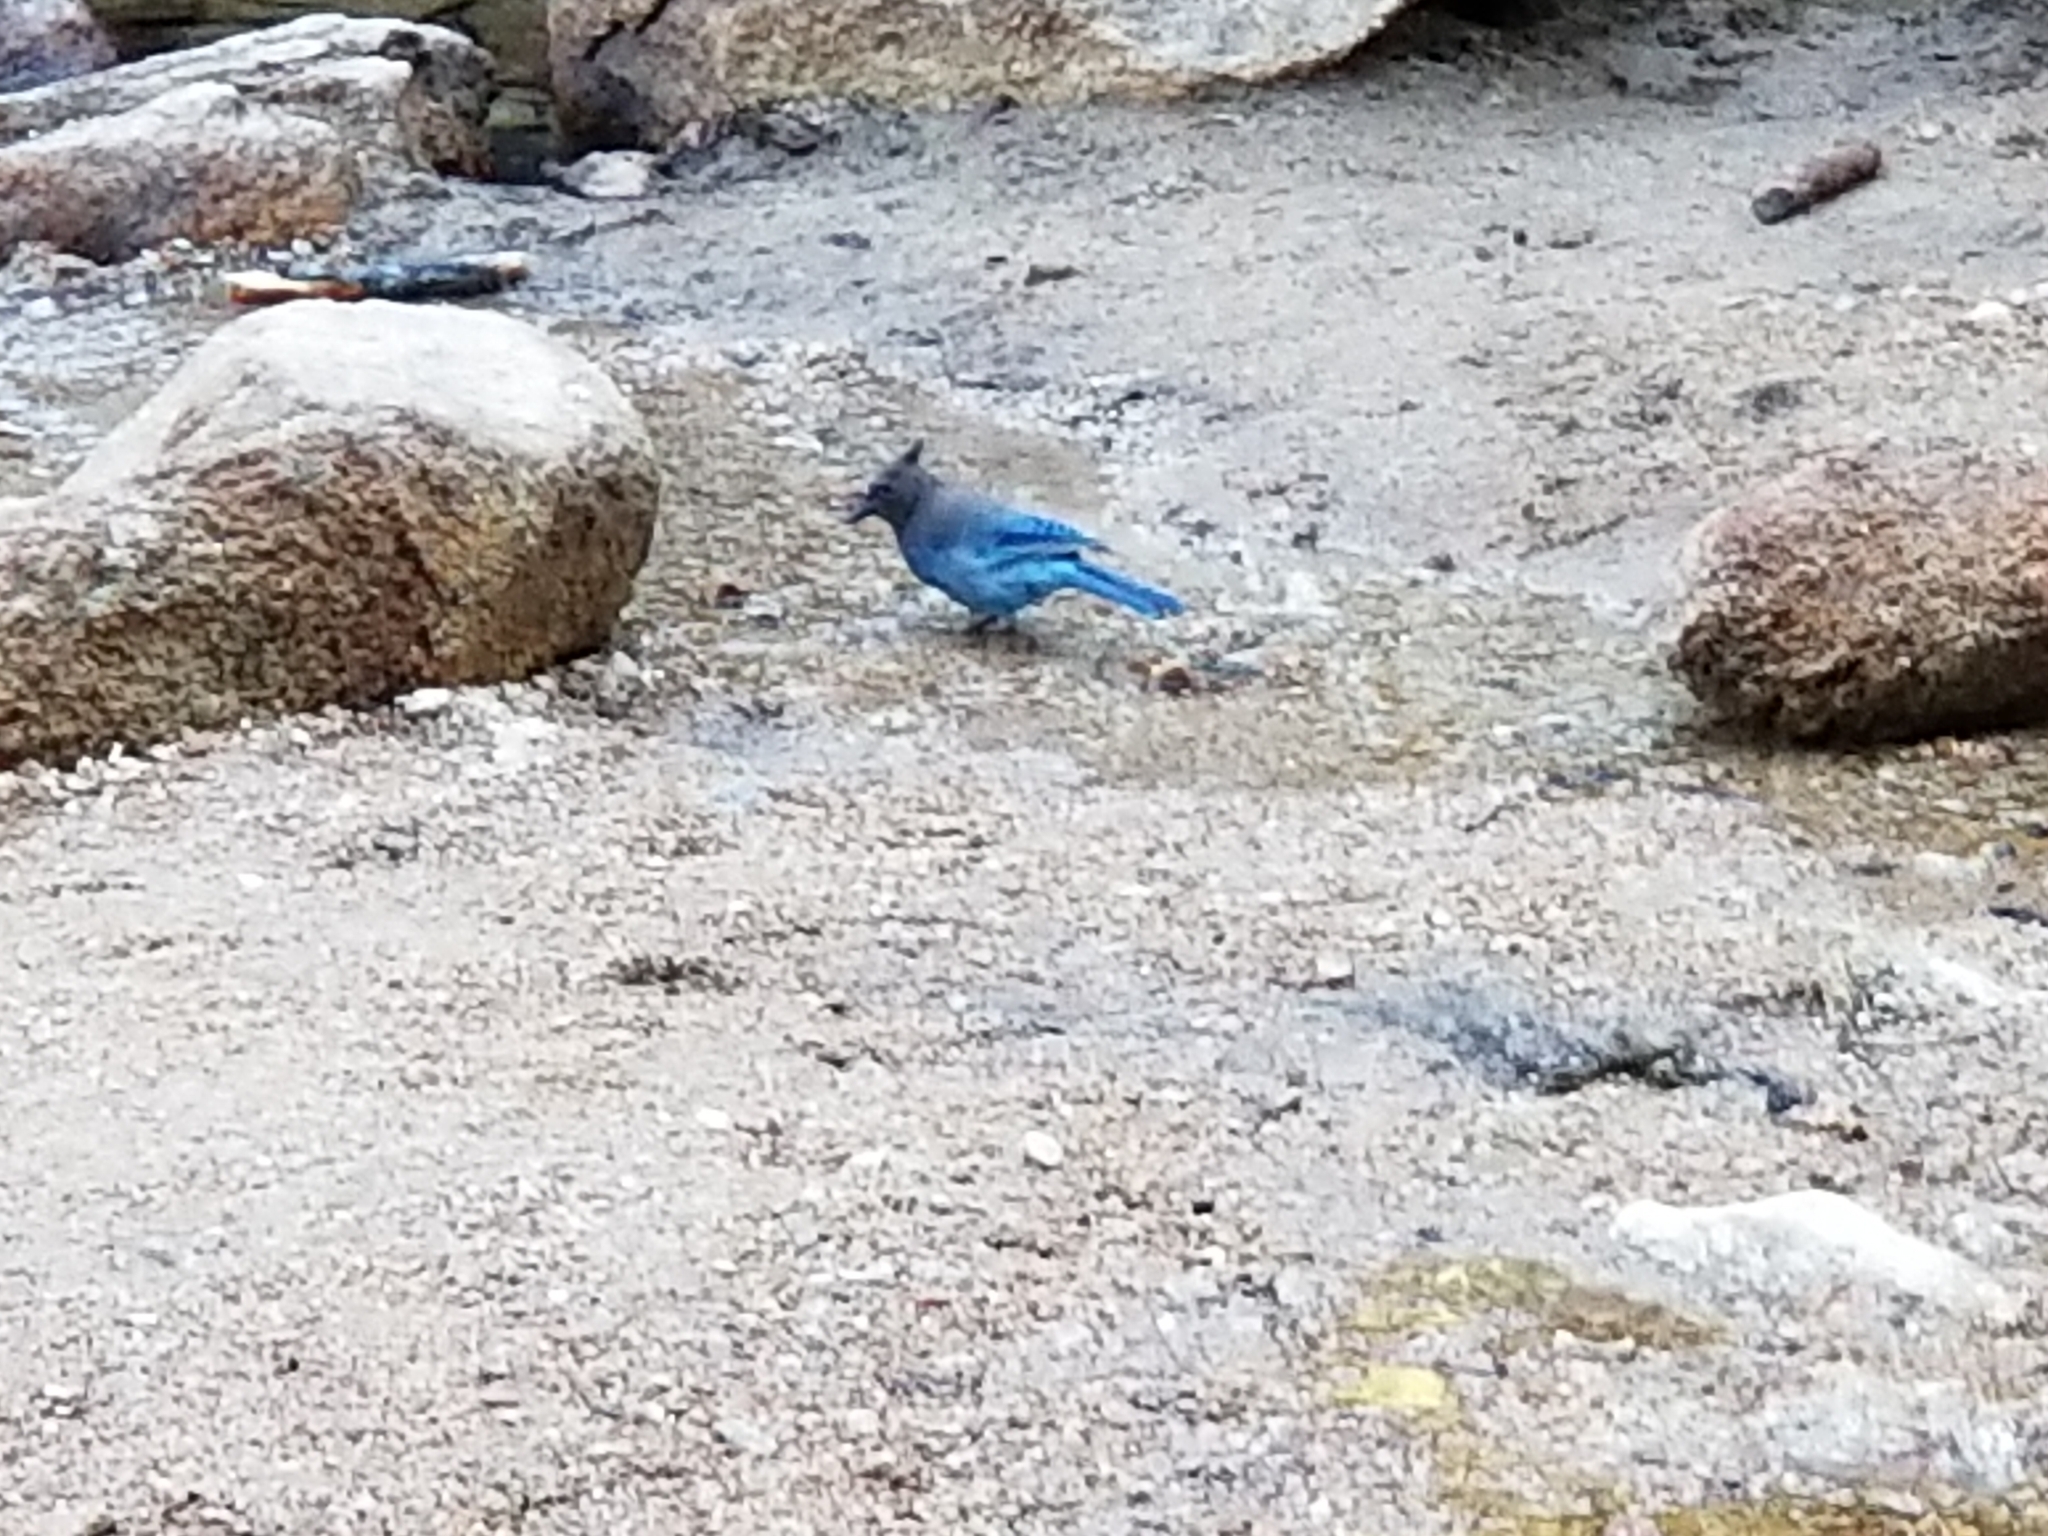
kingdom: Animalia
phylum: Chordata
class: Aves
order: Passeriformes
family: Corvidae
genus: Cyanocitta
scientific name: Cyanocitta stelleri
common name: Steller's jay
